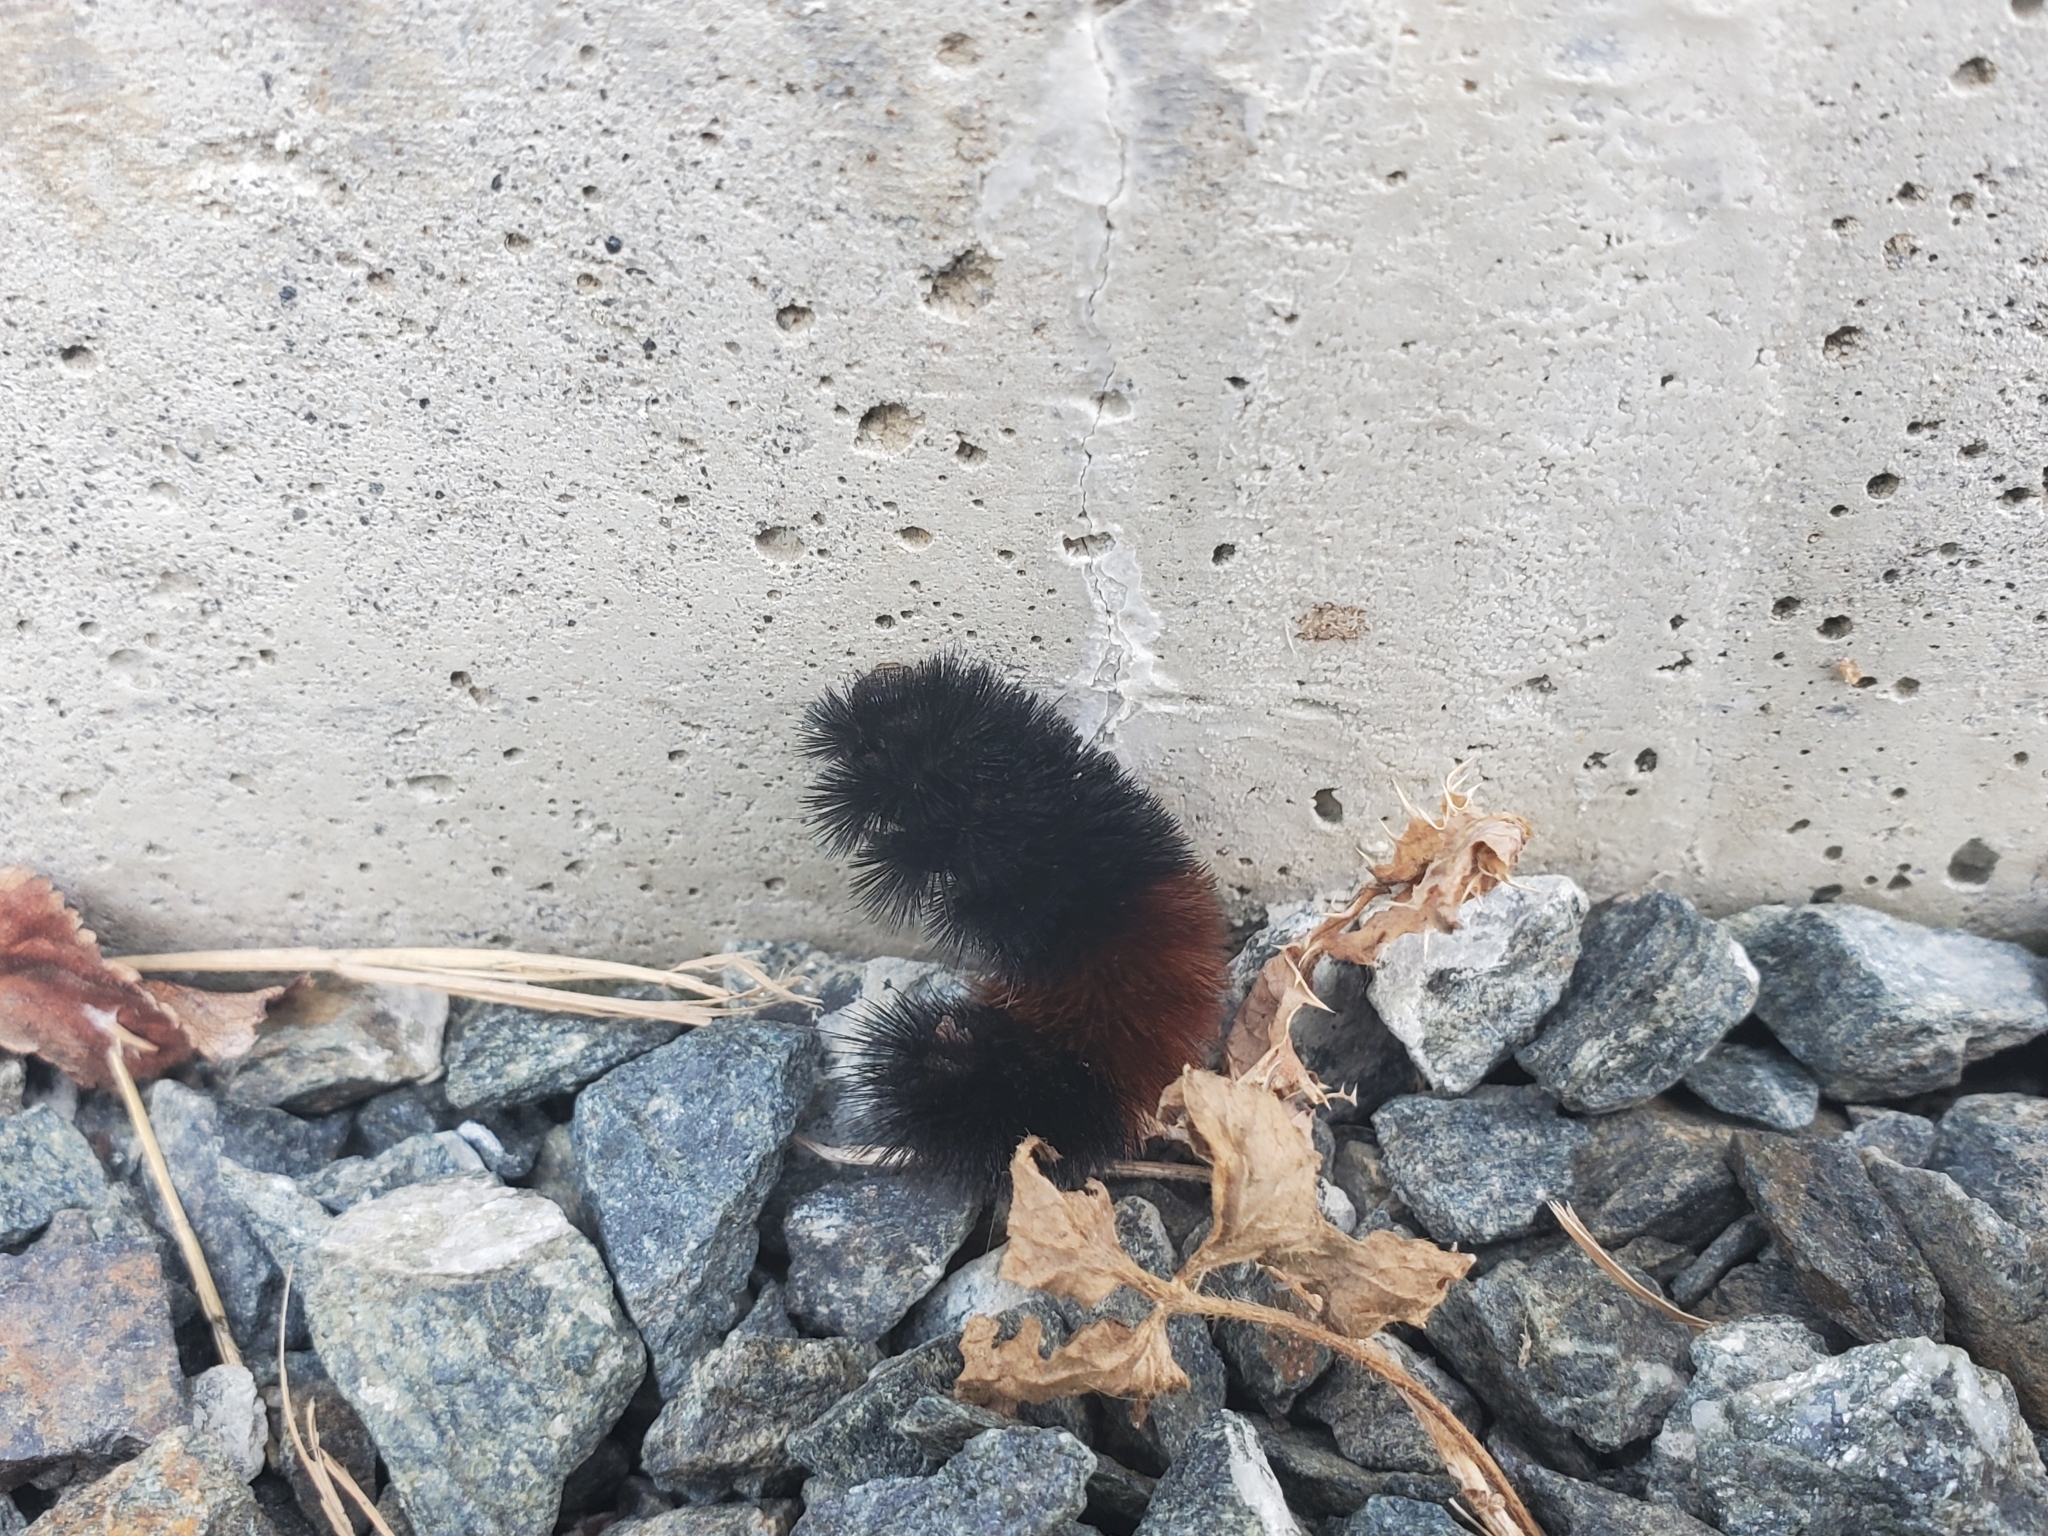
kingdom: Animalia
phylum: Arthropoda
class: Insecta
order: Lepidoptera
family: Erebidae
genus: Pyrrharctia
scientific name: Pyrrharctia isabella
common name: Isabella tiger moth
